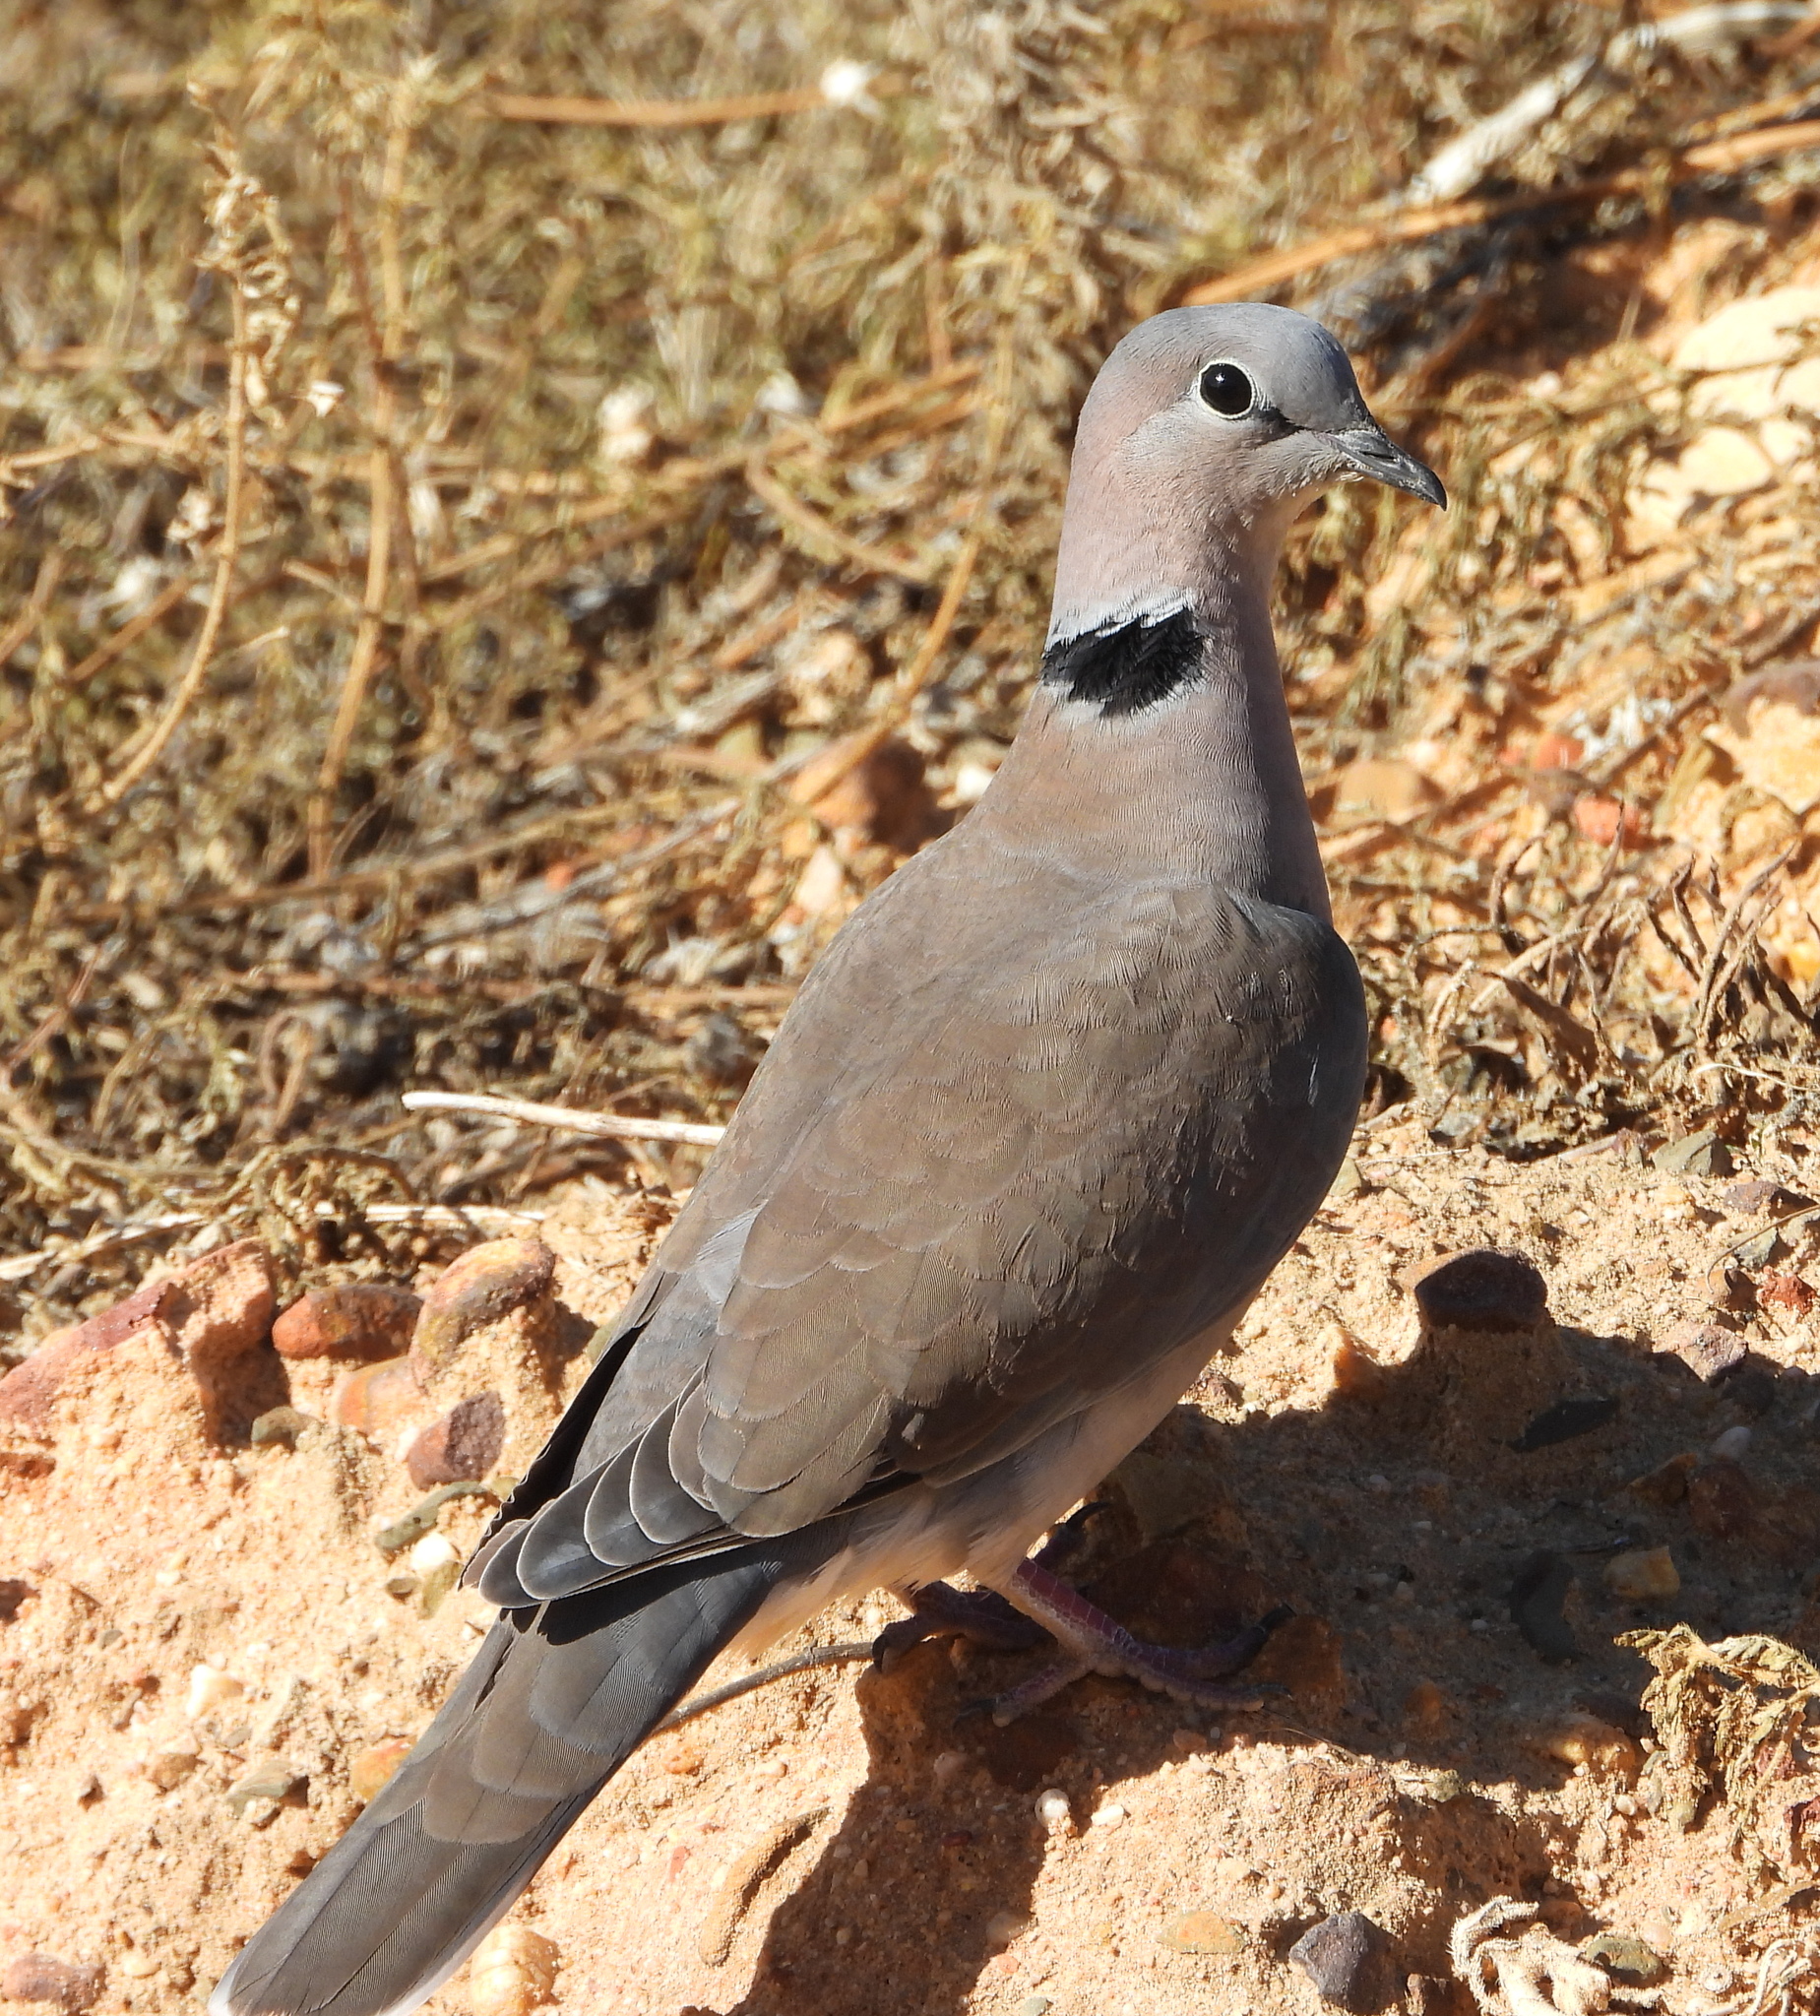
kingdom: Animalia
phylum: Chordata
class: Aves
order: Columbiformes
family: Columbidae
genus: Streptopelia
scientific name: Streptopelia capicola
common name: Ring-necked dove
